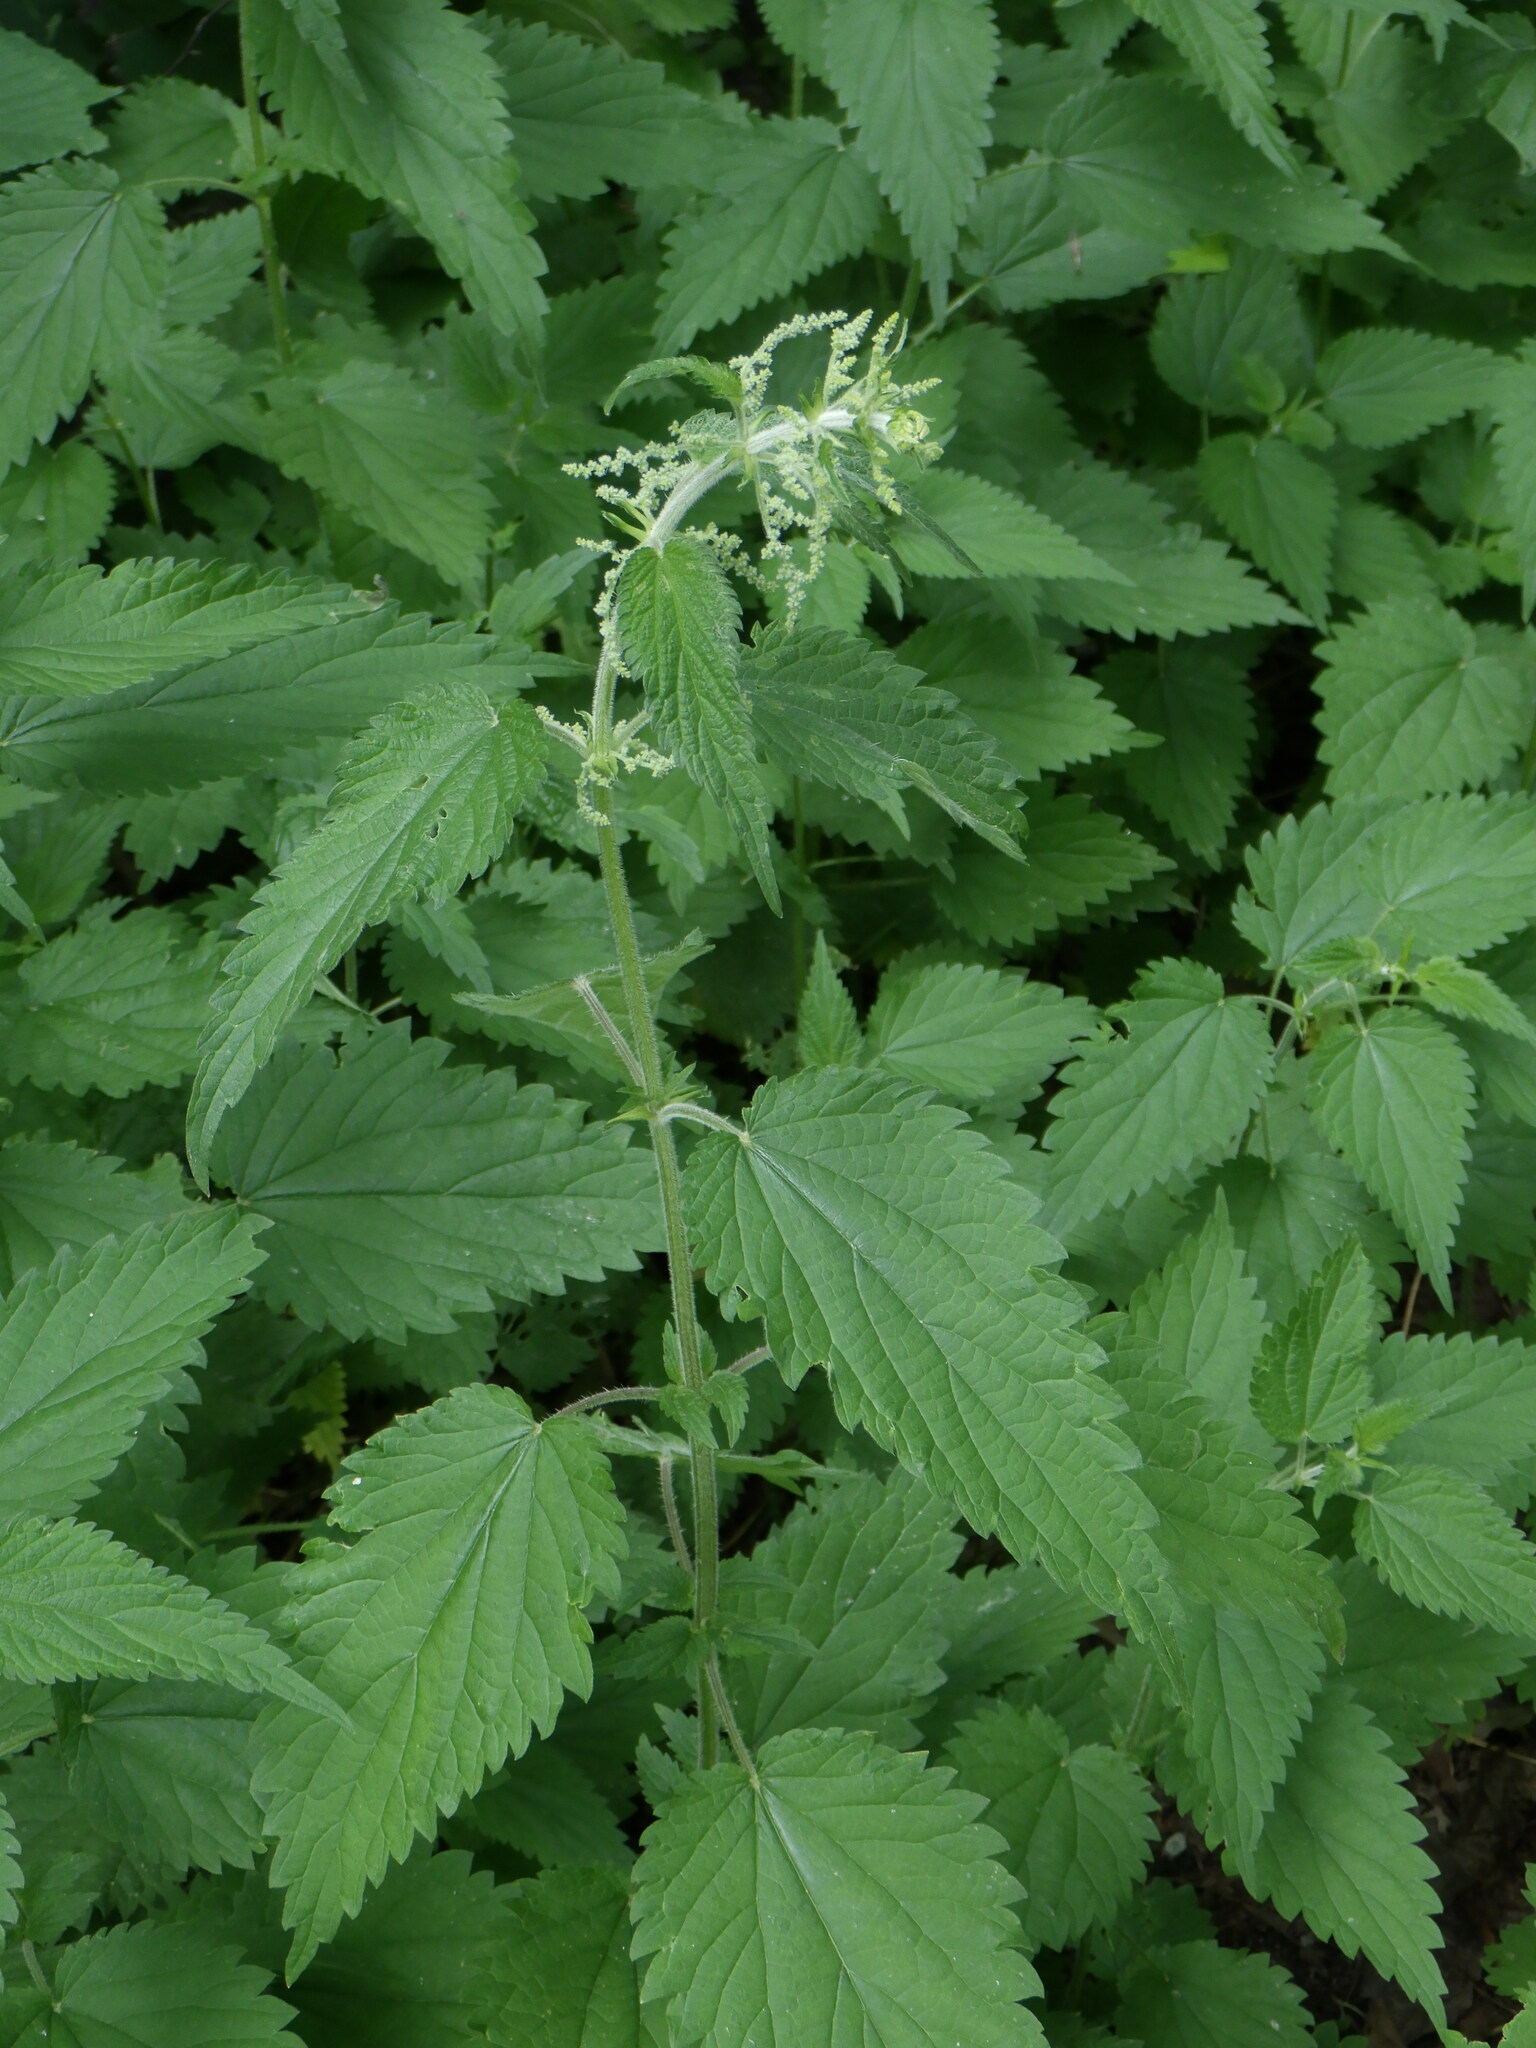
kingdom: Plantae
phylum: Tracheophyta
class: Magnoliopsida
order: Rosales
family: Urticaceae
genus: Urtica
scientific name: Urtica dioica
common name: Common nettle
